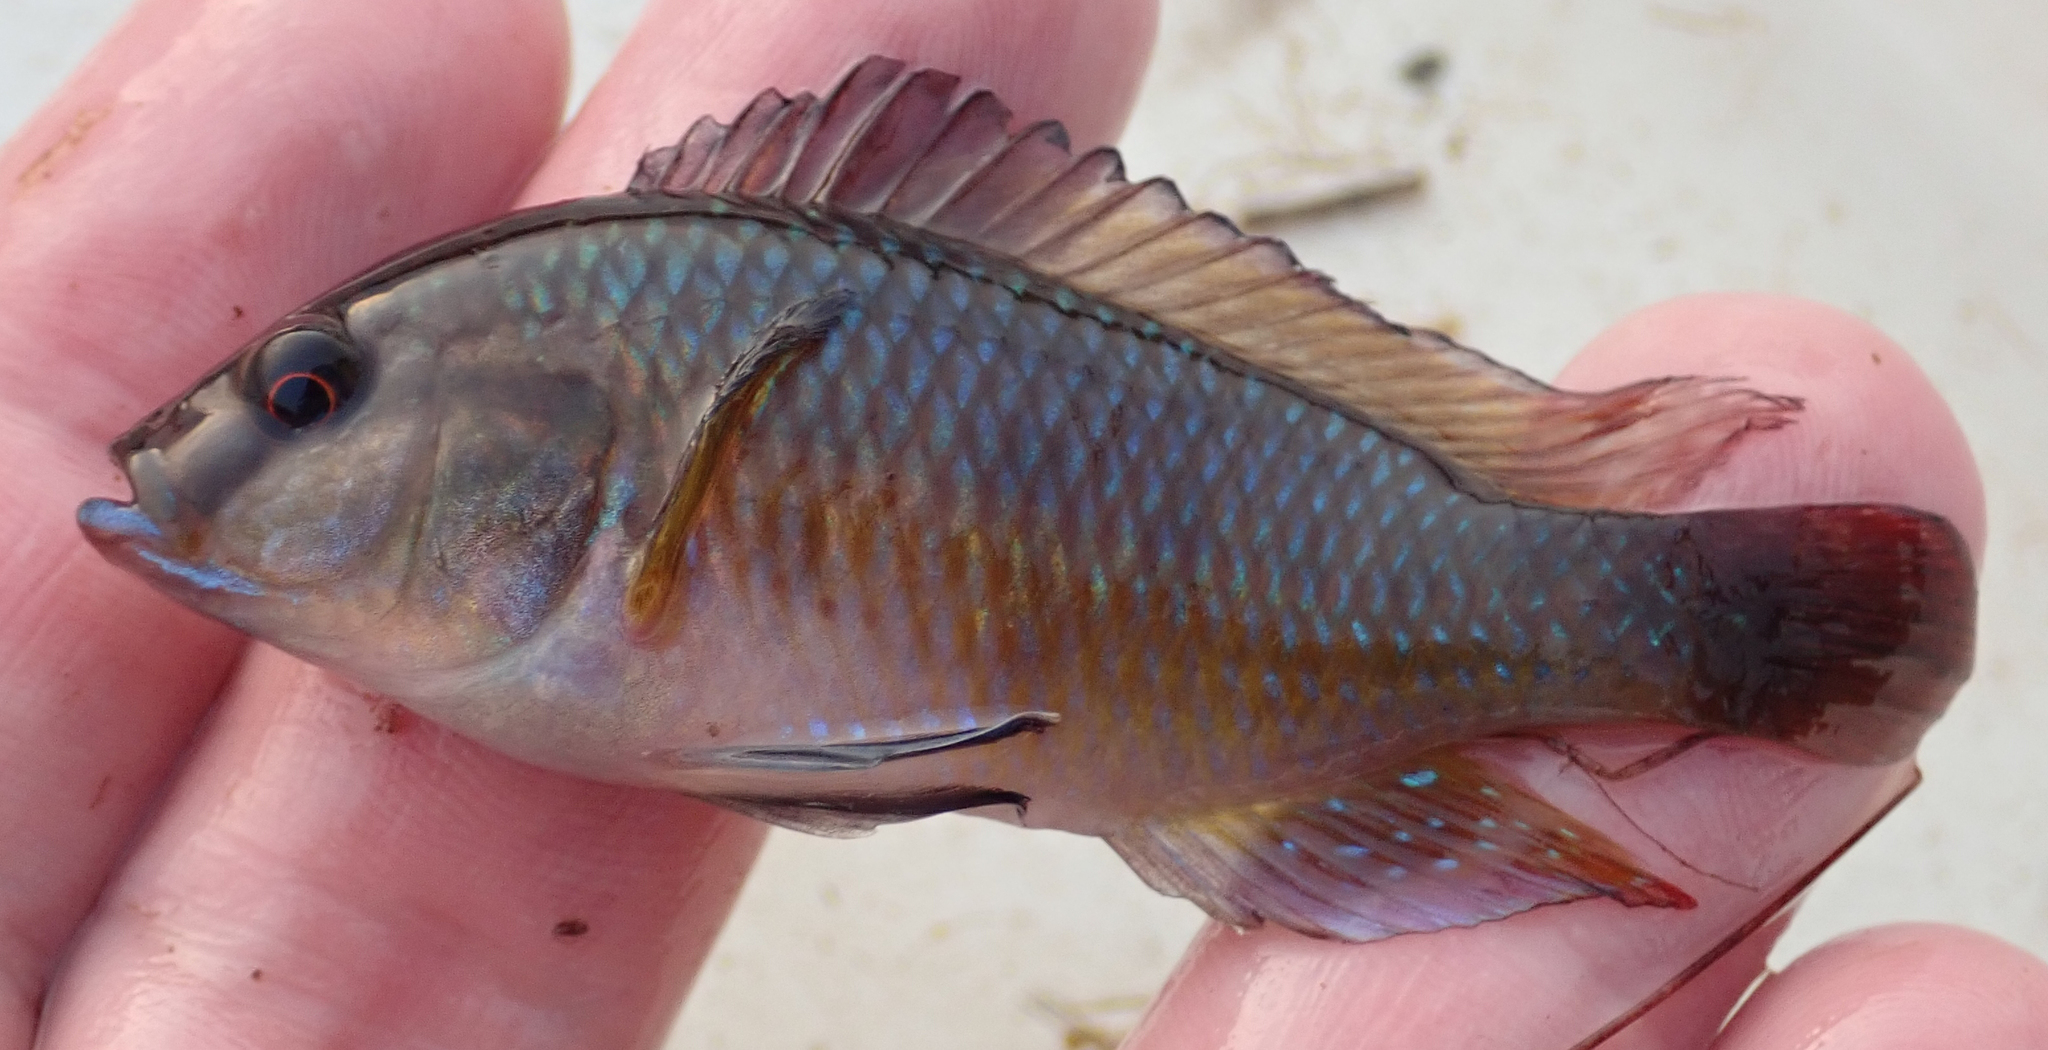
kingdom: Animalia
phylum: Chordata
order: Perciformes
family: Cichlidae
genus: Pseudocrenilabrus
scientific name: Pseudocrenilabrus philander
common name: Southern mouthbrooder
